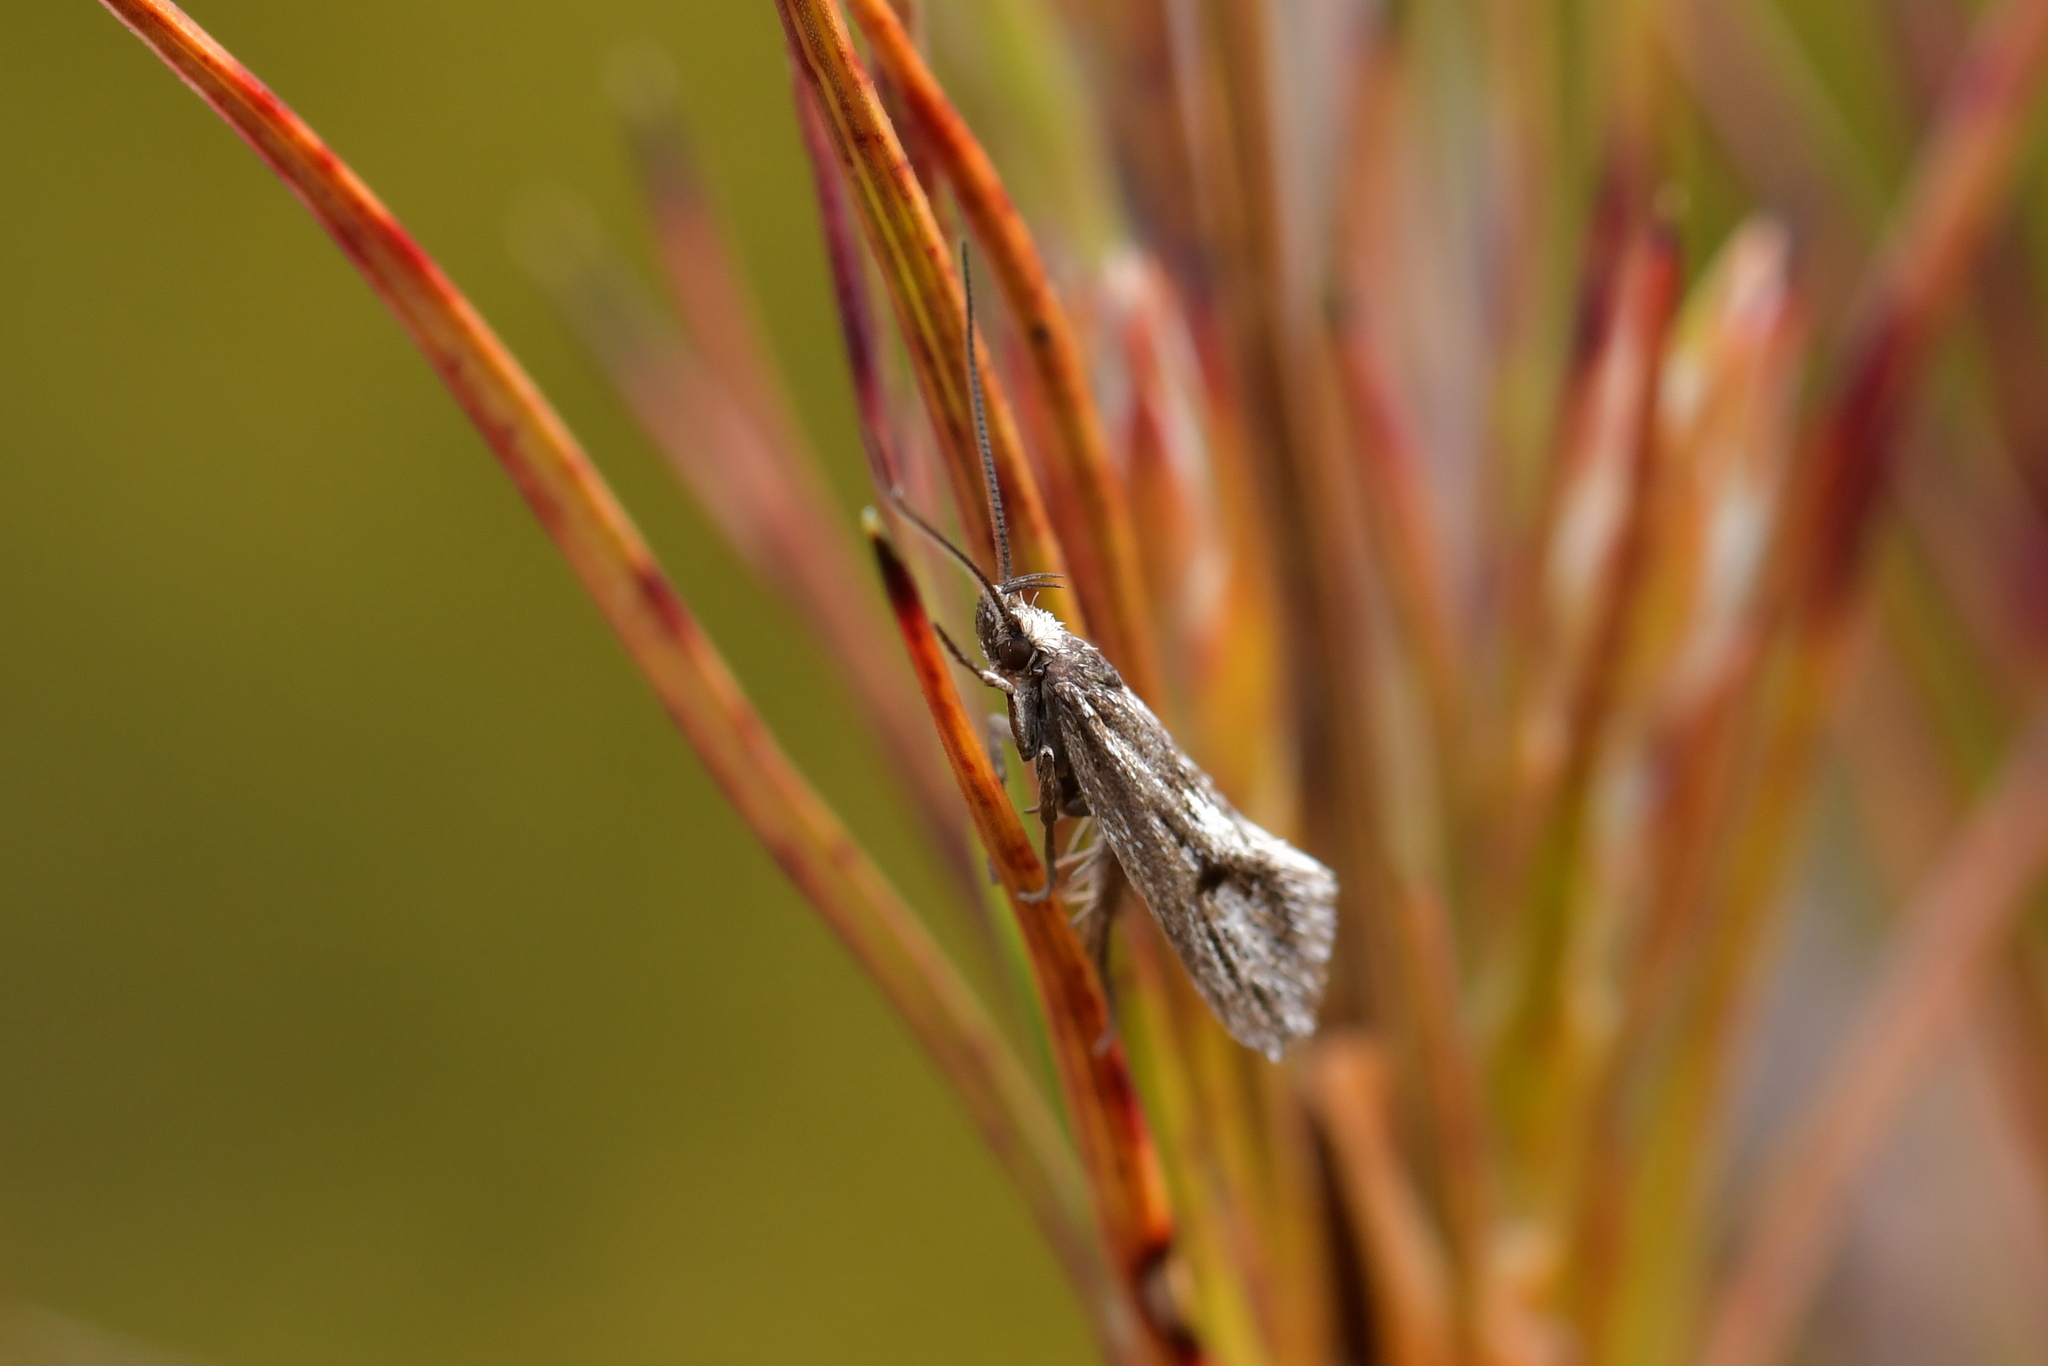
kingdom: Animalia
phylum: Arthropoda
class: Insecta
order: Lepidoptera
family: Oecophoridae
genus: Prepalla
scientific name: Prepalla
